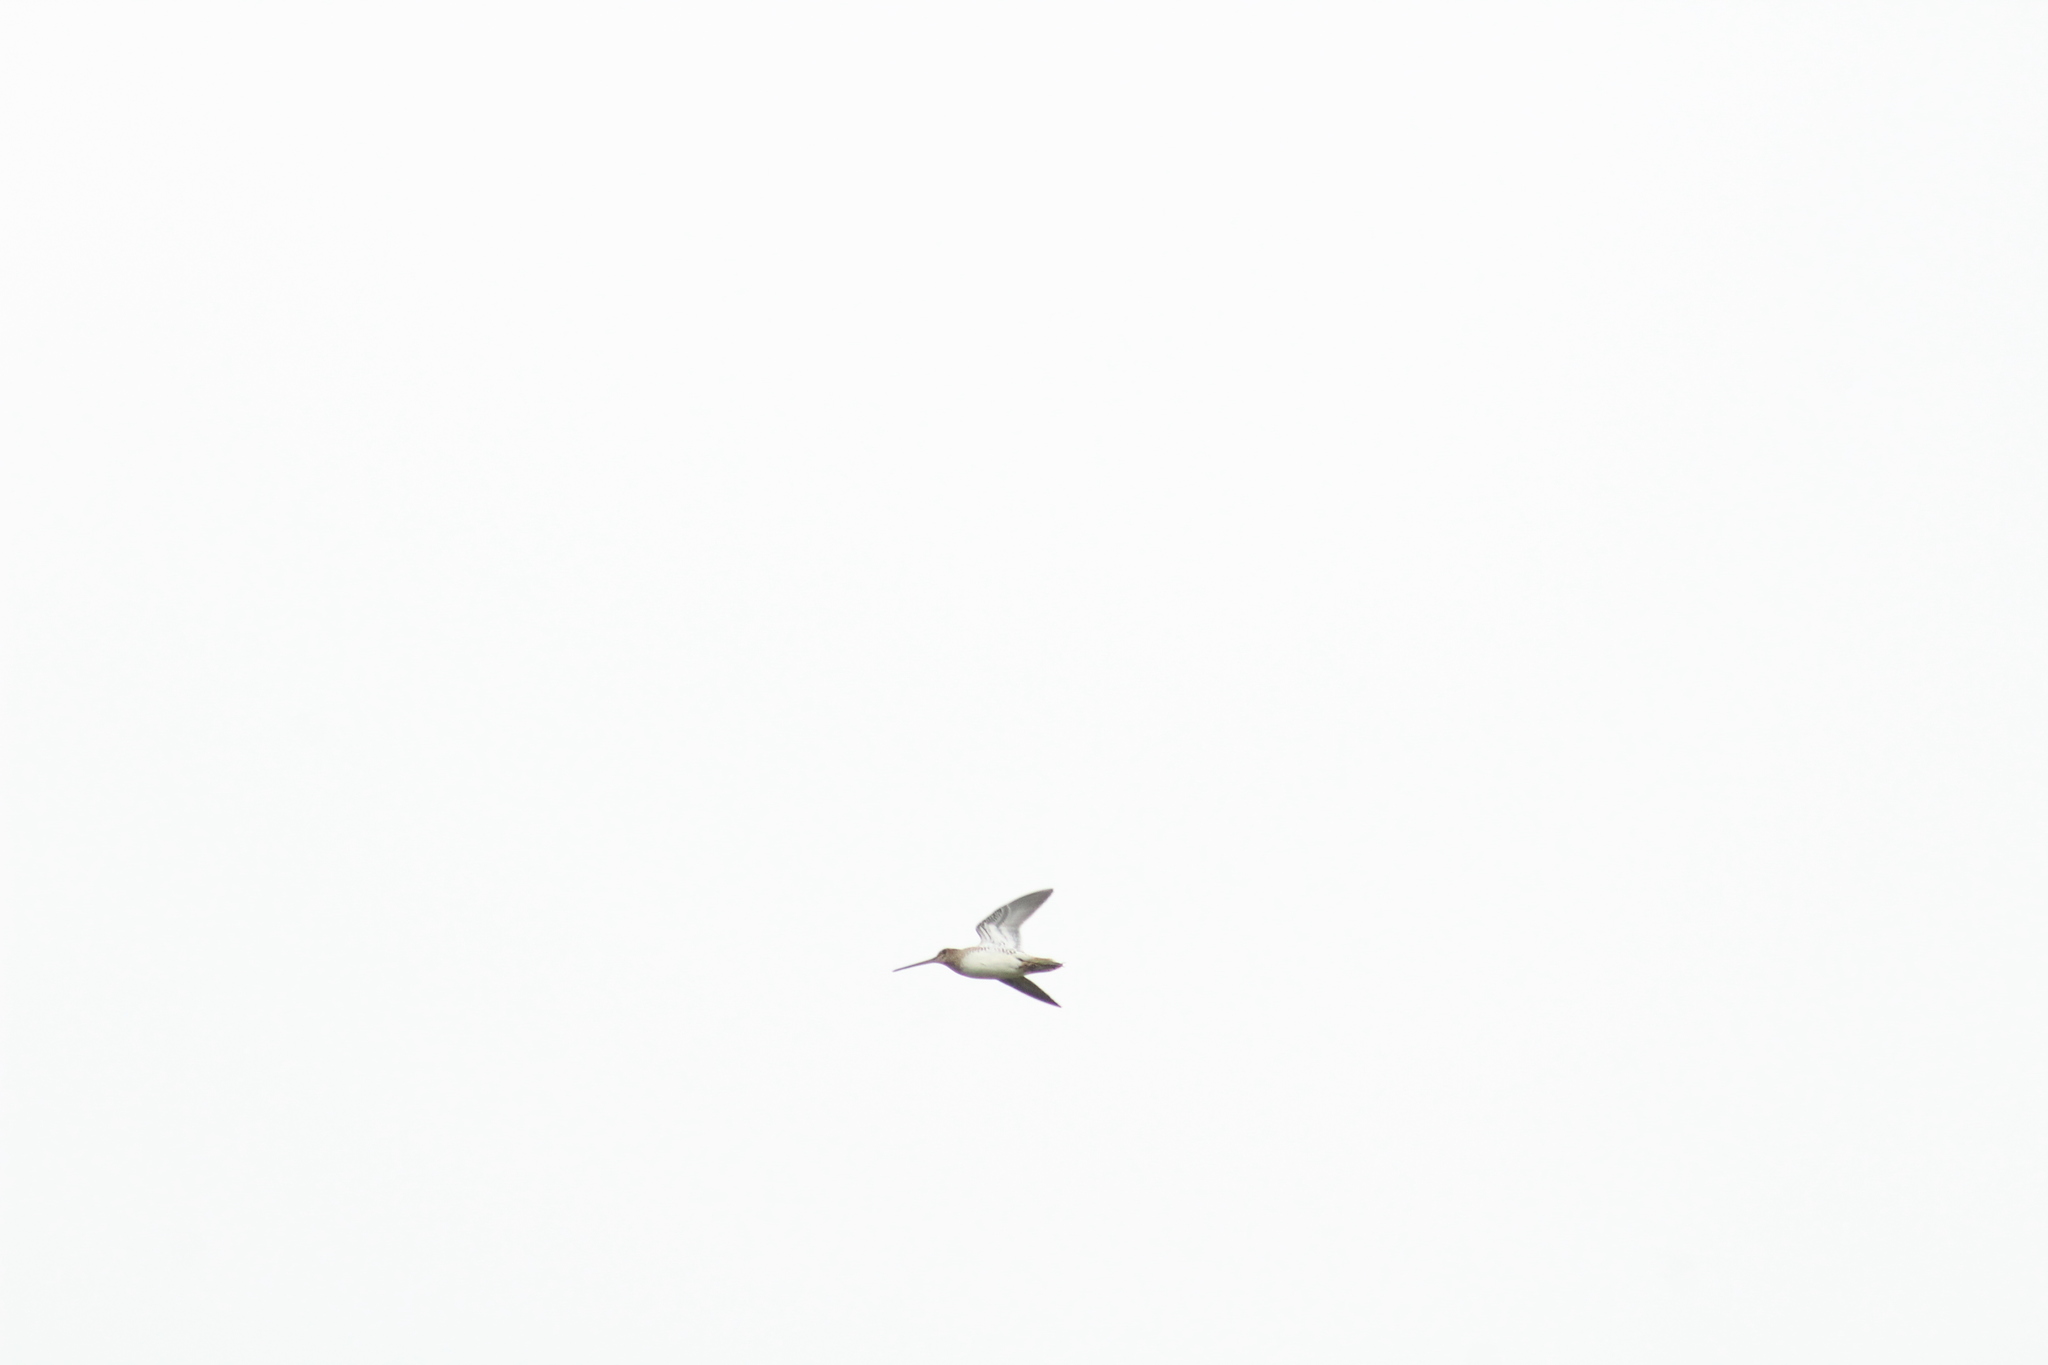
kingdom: Animalia
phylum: Chordata
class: Aves
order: Charadriiformes
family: Scolopacidae
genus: Gallinago
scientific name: Gallinago gallinago
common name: Common snipe
